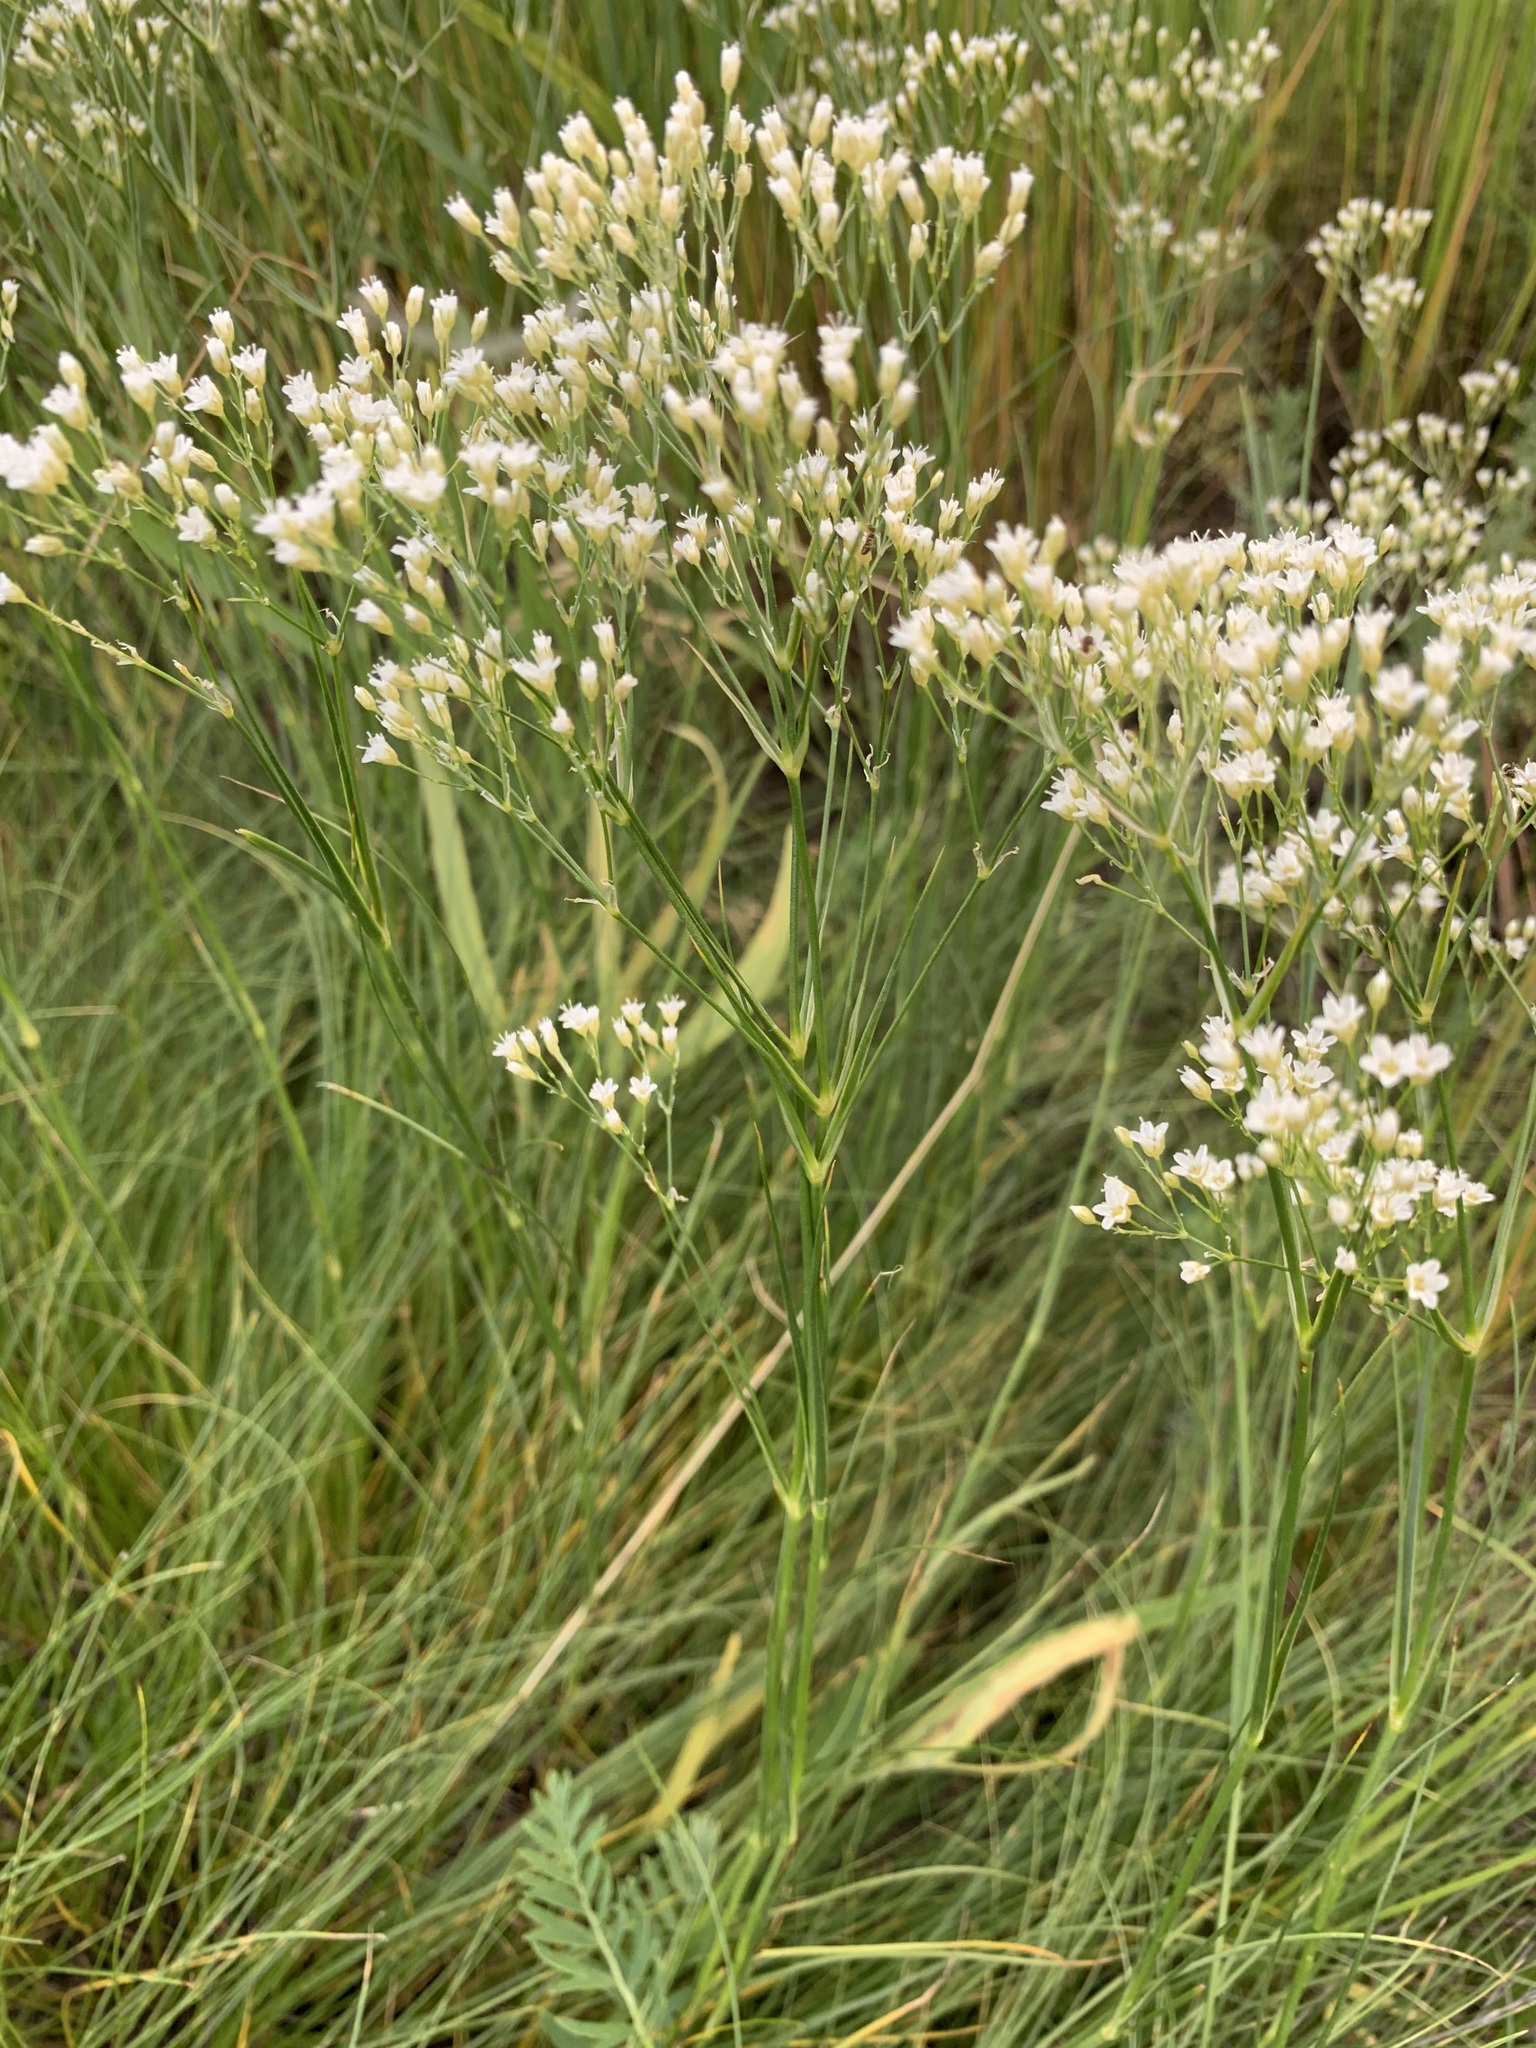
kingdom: Plantae
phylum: Tracheophyta
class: Magnoliopsida
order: Caryophyllales
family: Caryophyllaceae
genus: Eremogone
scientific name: Eremogone longifolia
